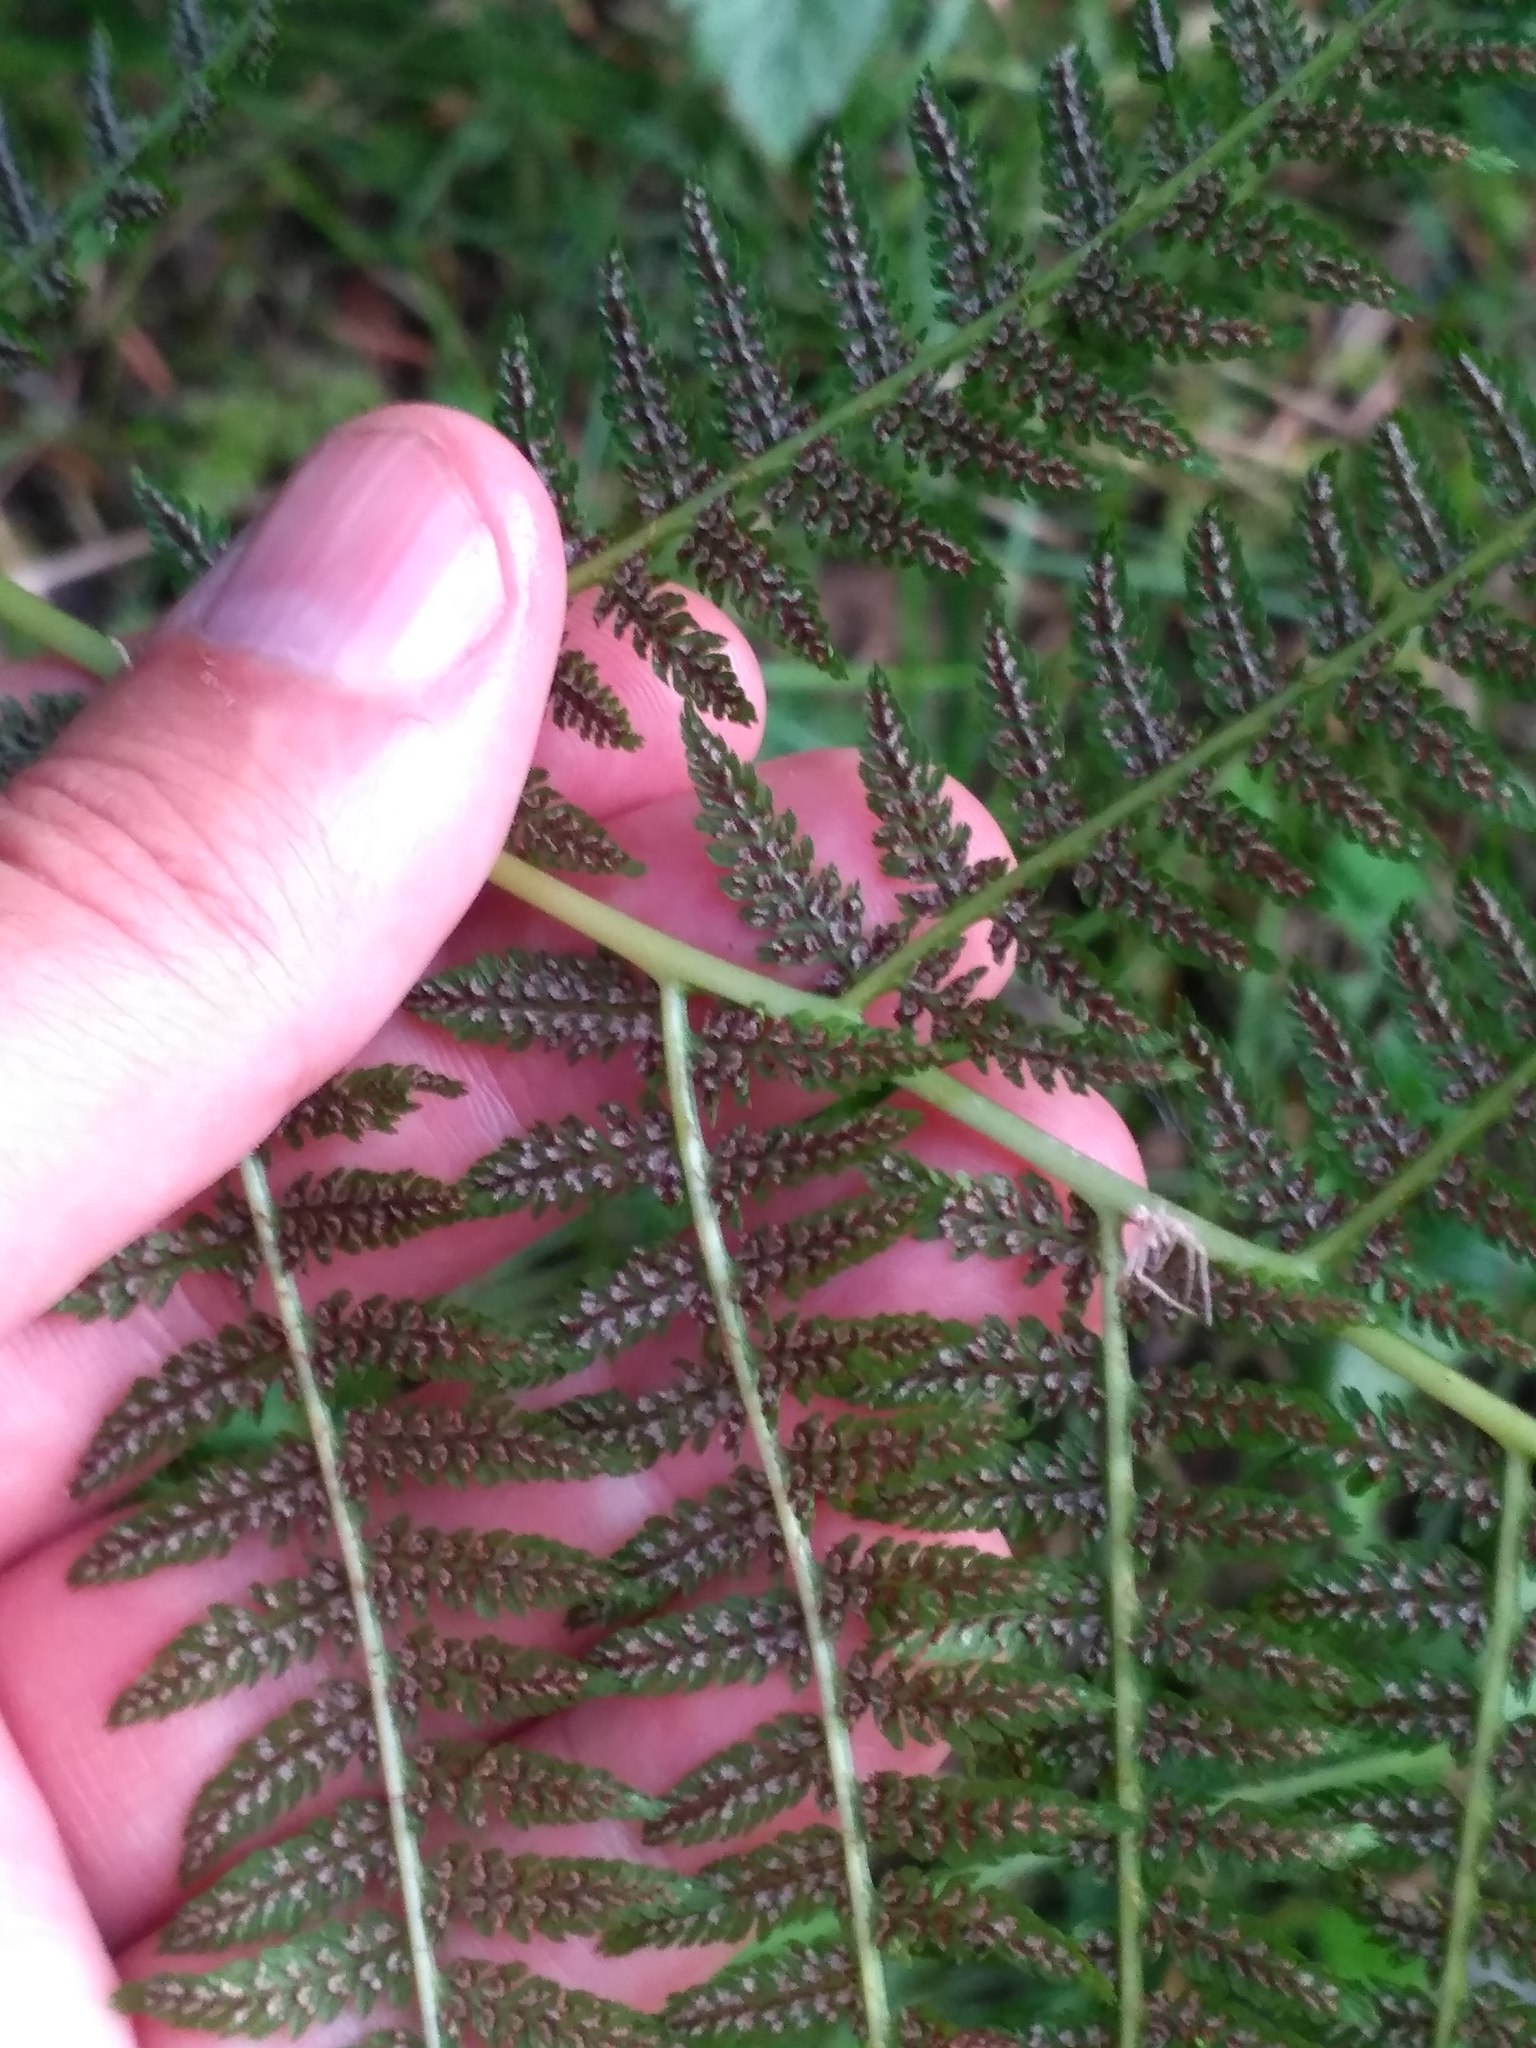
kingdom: Plantae
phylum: Tracheophyta
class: Polypodiopsida
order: Polypodiales
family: Athyriaceae
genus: Athyrium
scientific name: Athyrium filix-femina
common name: Lady fern
